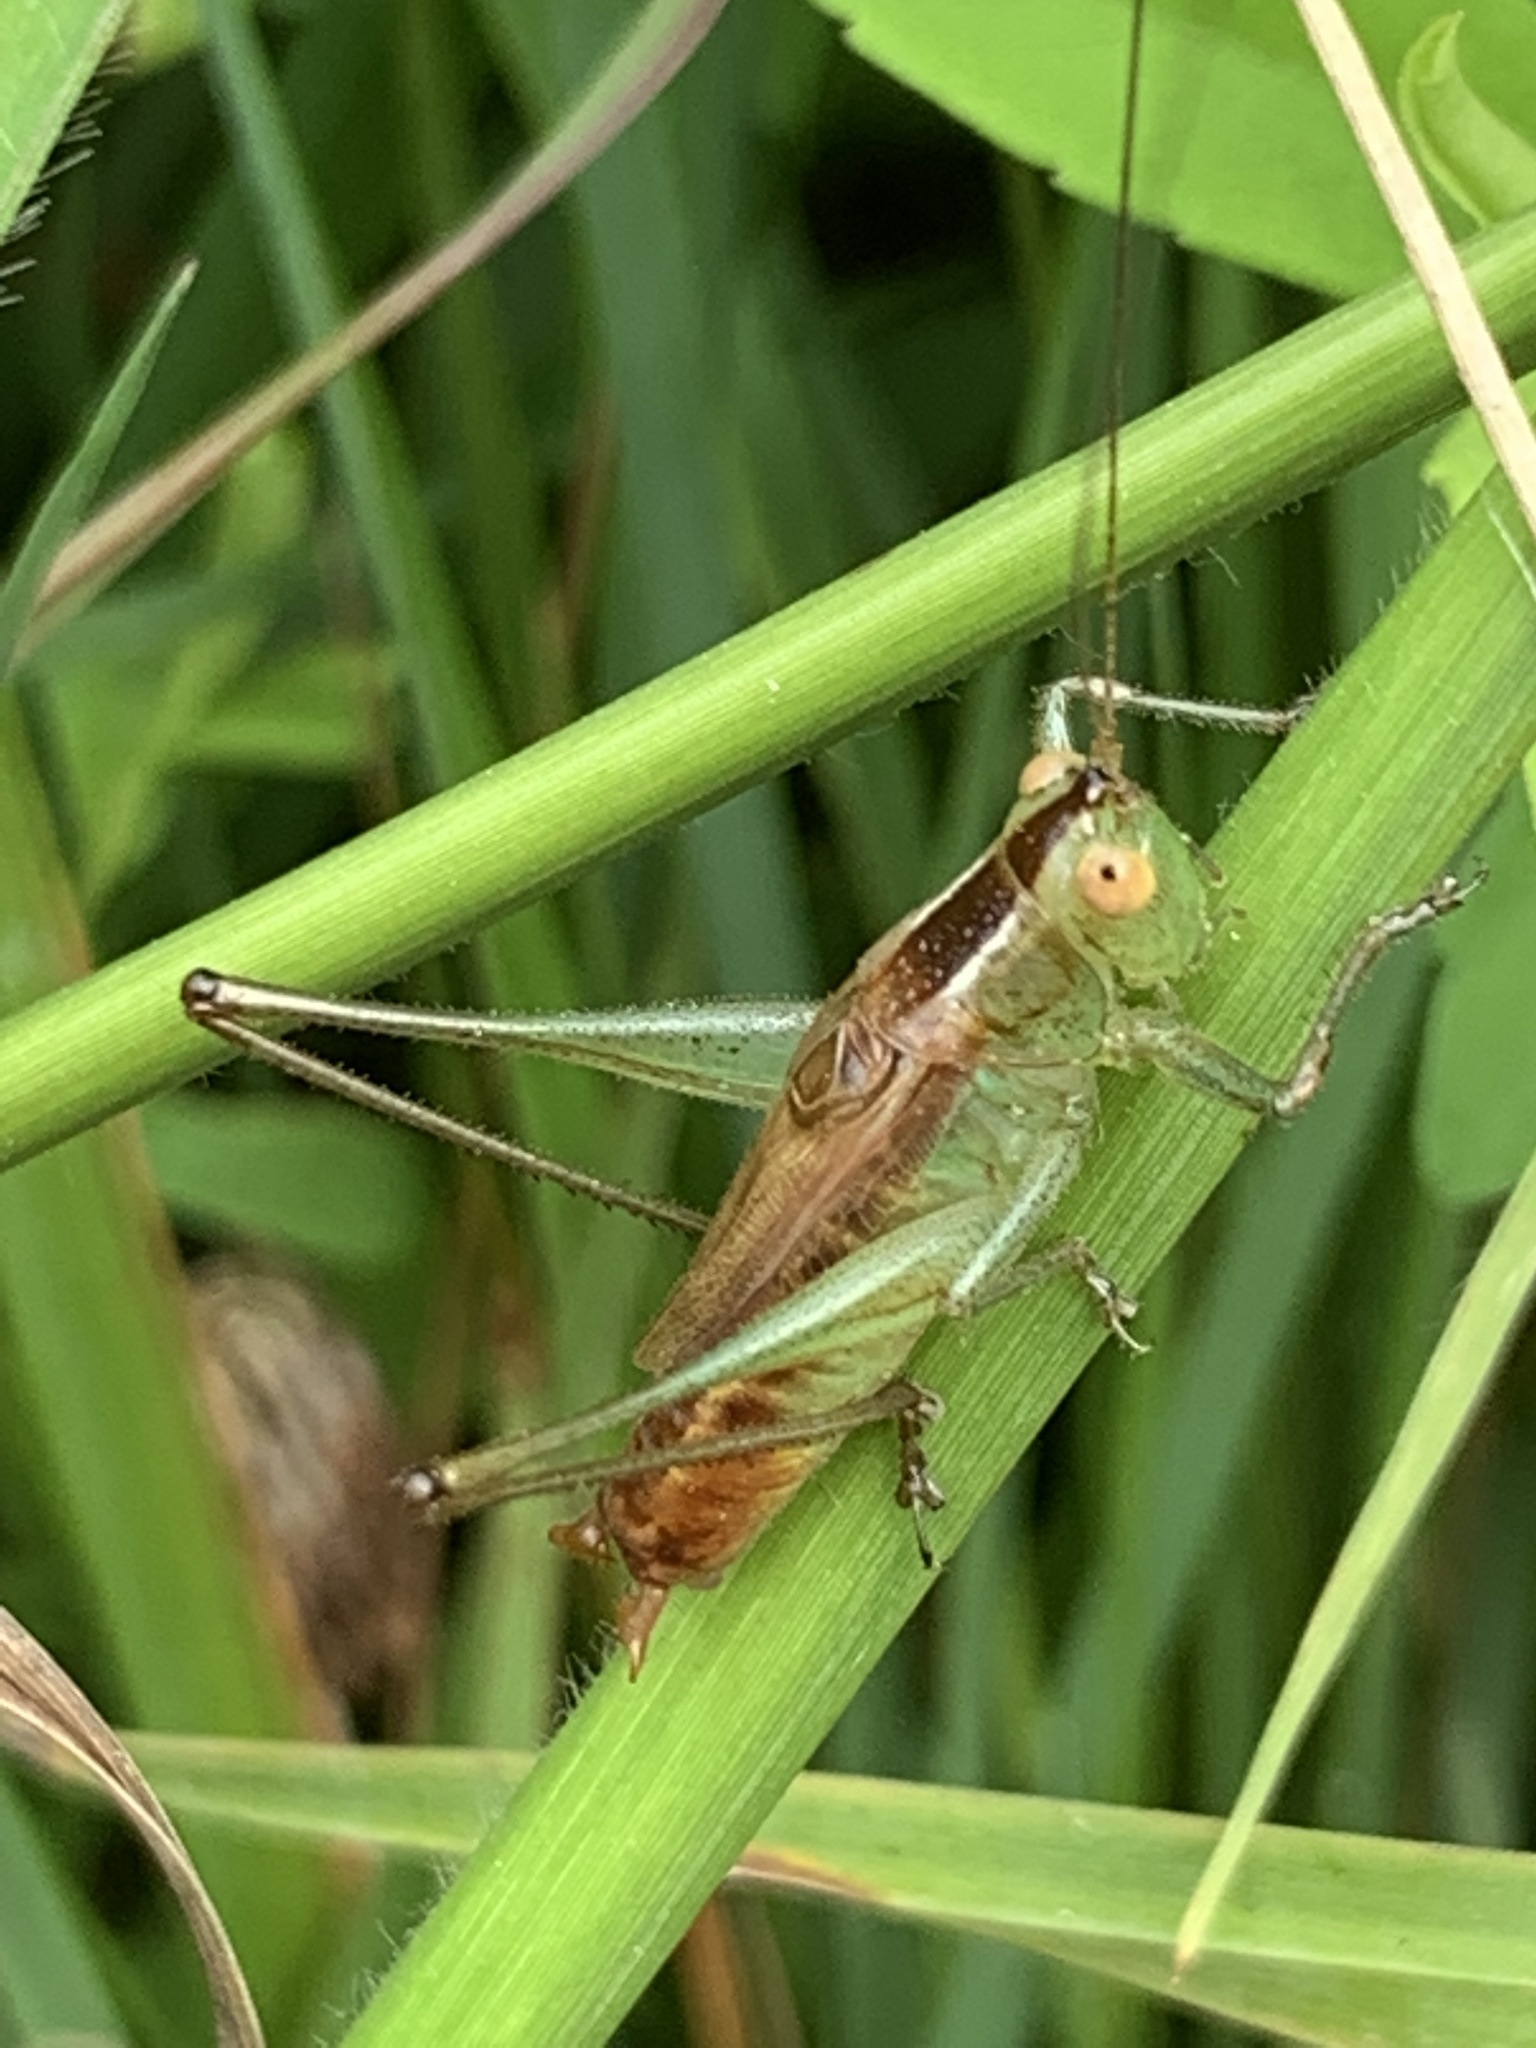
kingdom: Animalia
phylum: Arthropoda
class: Insecta
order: Orthoptera
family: Tettigoniidae
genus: Conocephalus
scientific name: Conocephalus brevipennis
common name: Short-winged meadow katydid
